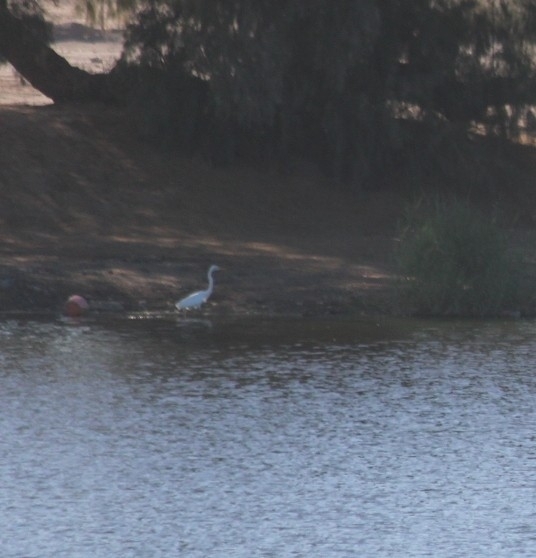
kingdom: Animalia
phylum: Chordata
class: Aves
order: Pelecaniformes
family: Ardeidae
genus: Ardea
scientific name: Ardea alba
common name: Great egret
